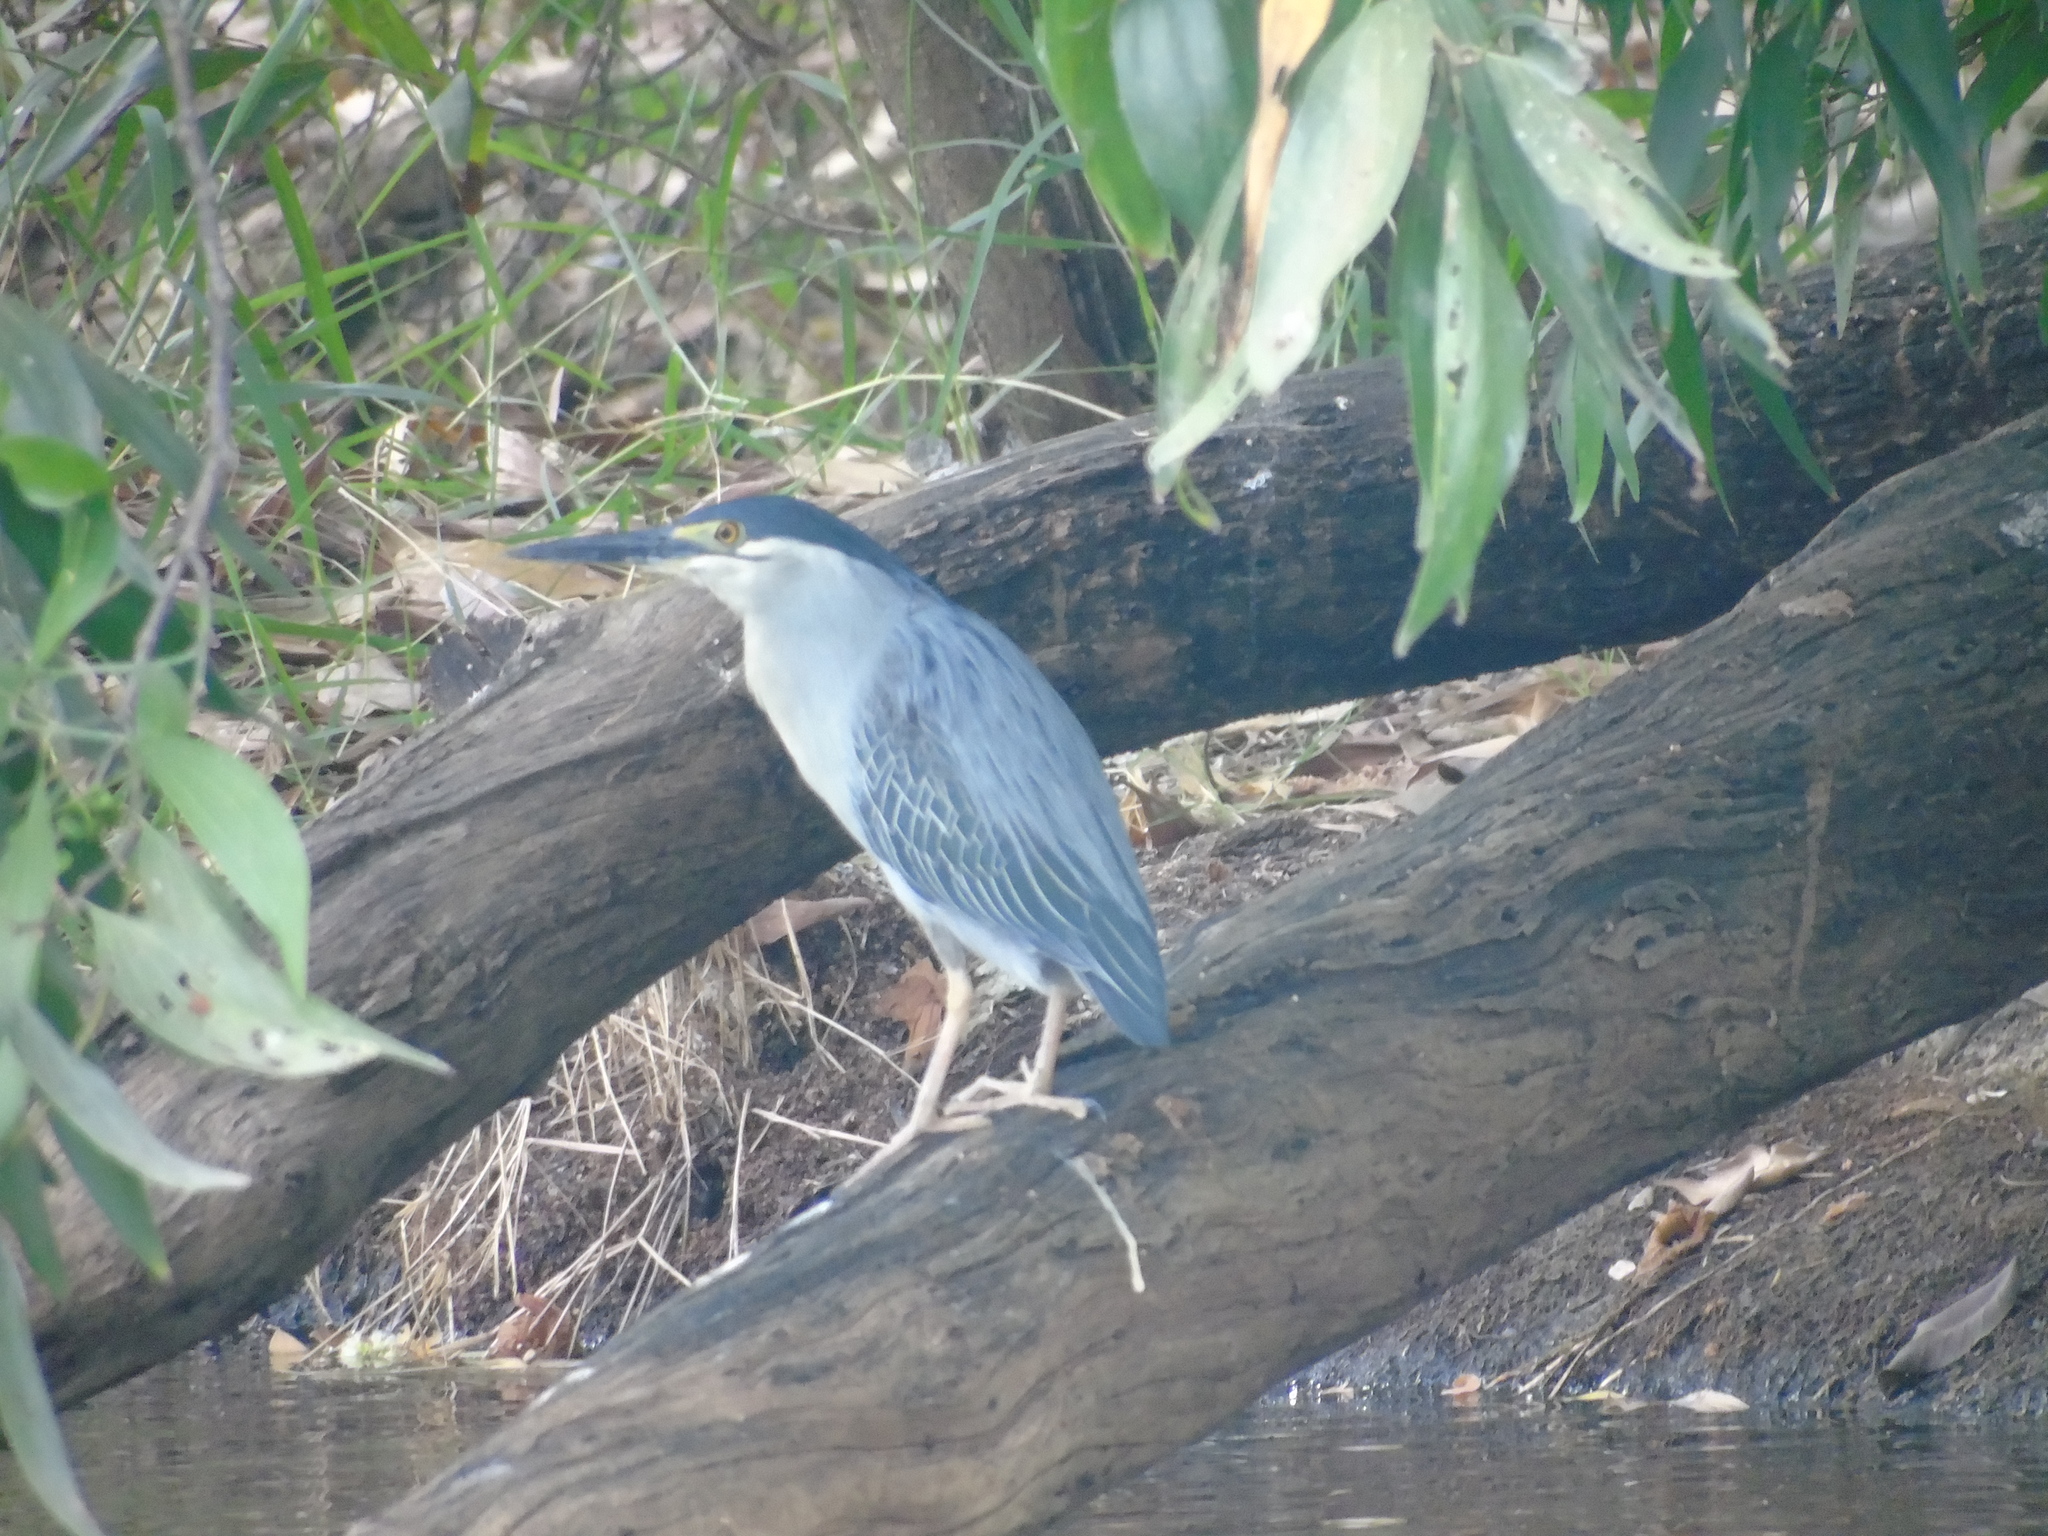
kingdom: Animalia
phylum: Chordata
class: Aves
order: Pelecaniformes
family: Ardeidae
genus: Butorides
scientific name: Butorides striata
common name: Striated heron
